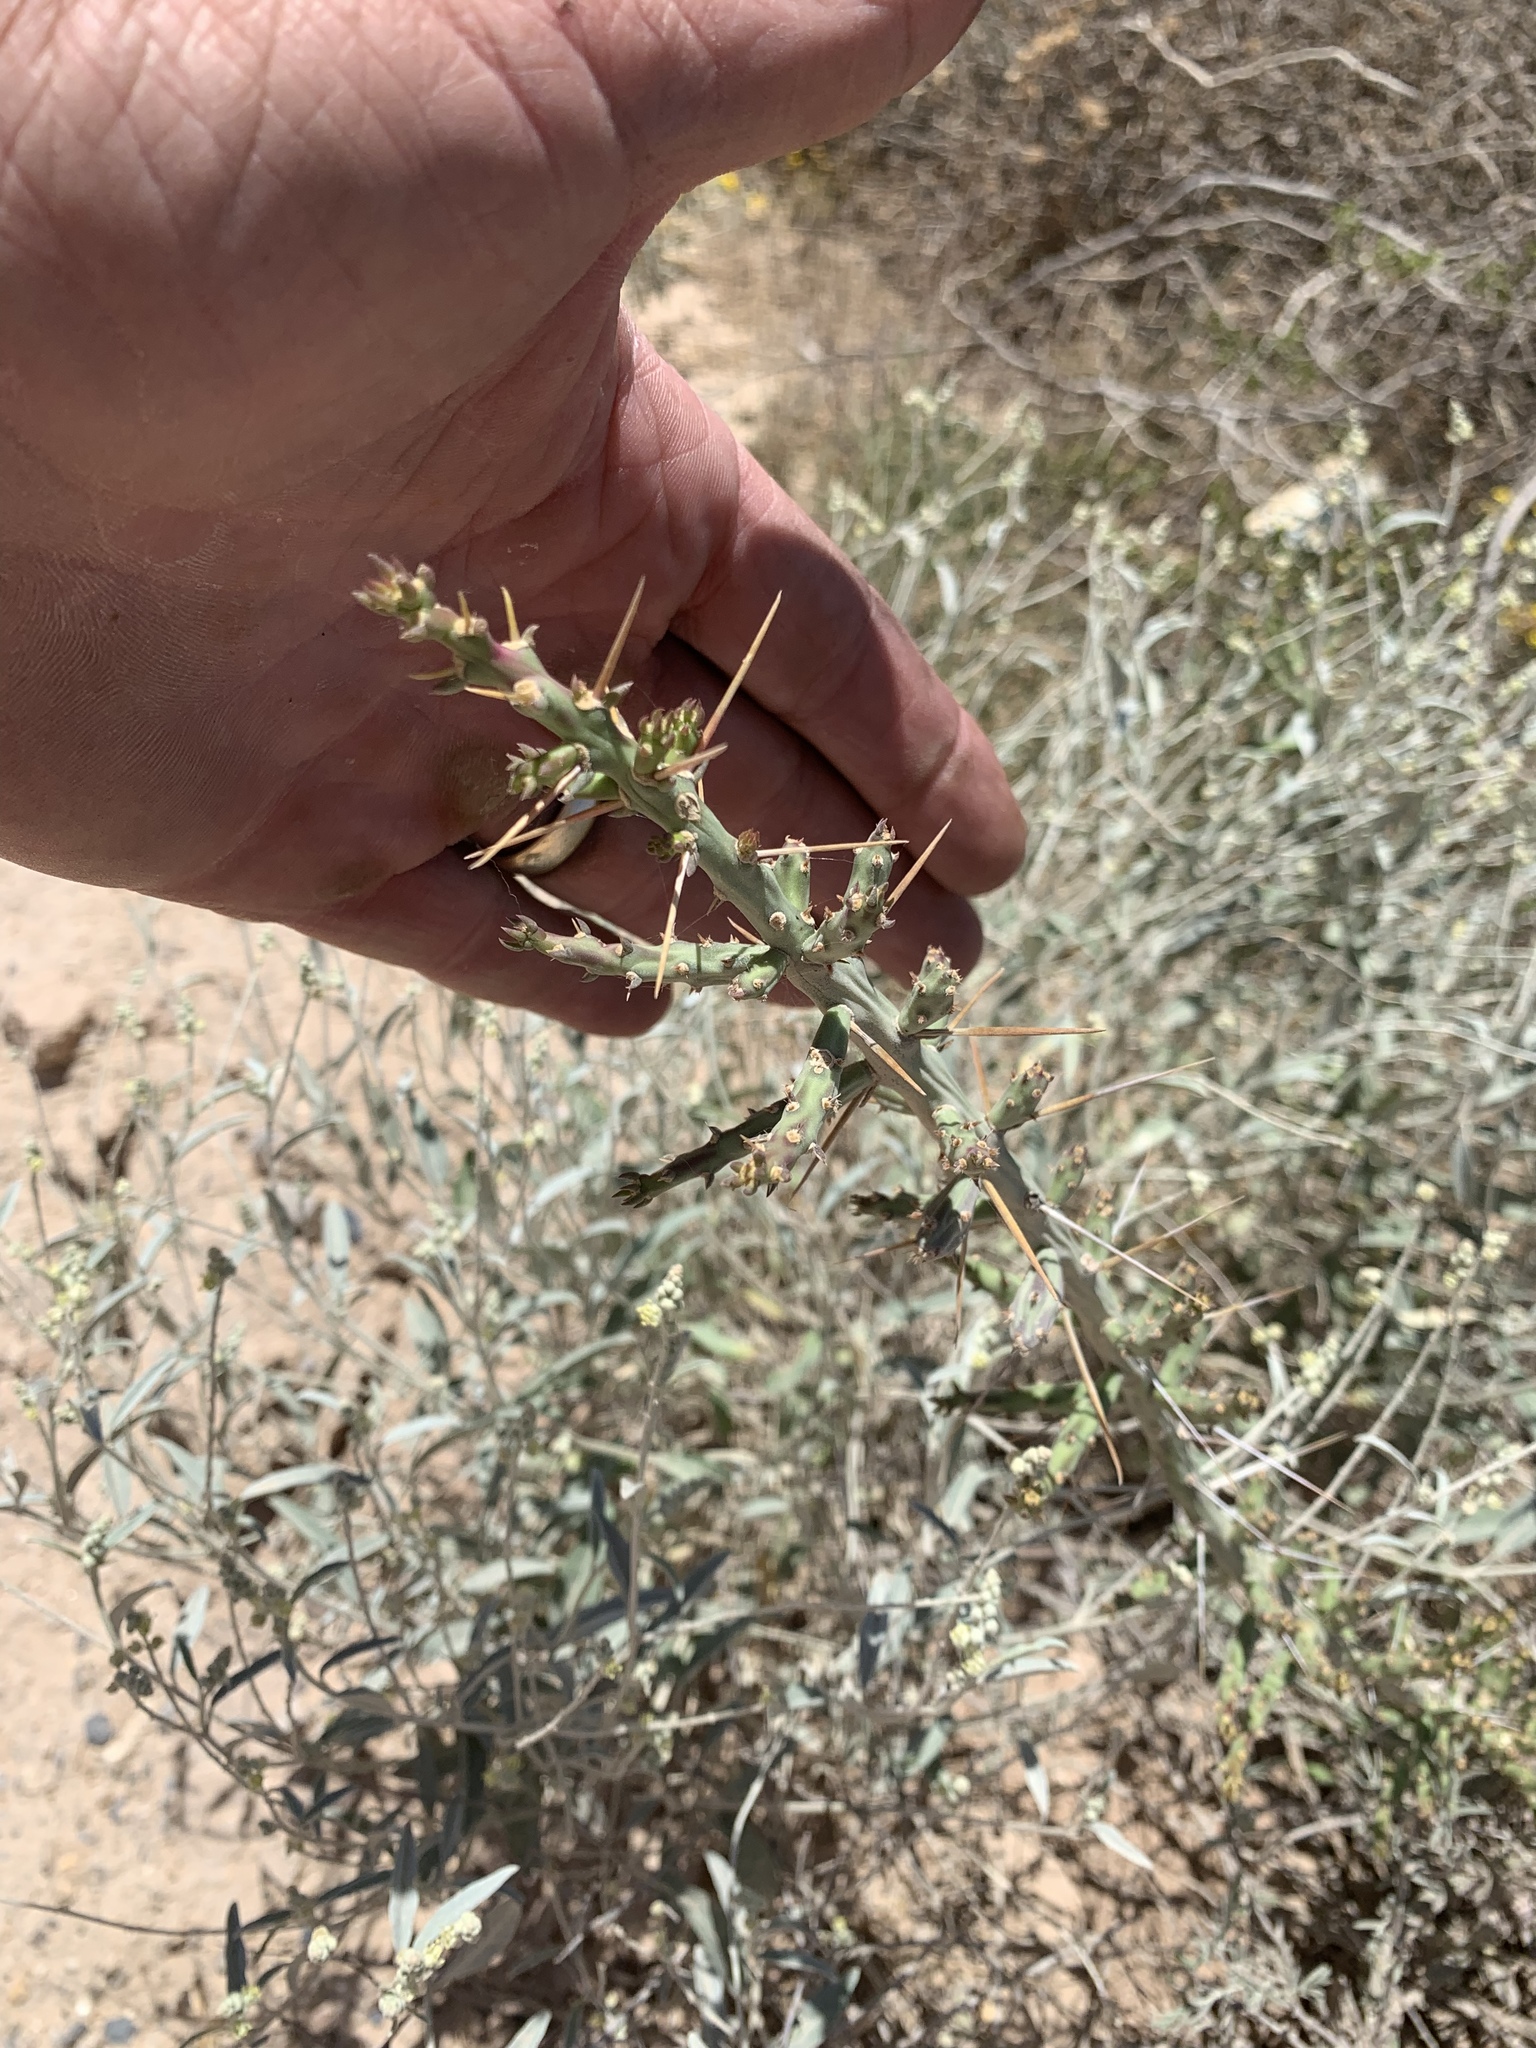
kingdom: Plantae
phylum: Tracheophyta
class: Magnoliopsida
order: Caryophyllales
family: Cactaceae
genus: Cylindropuntia
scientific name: Cylindropuntia leptocaulis
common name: Christmas cactus
